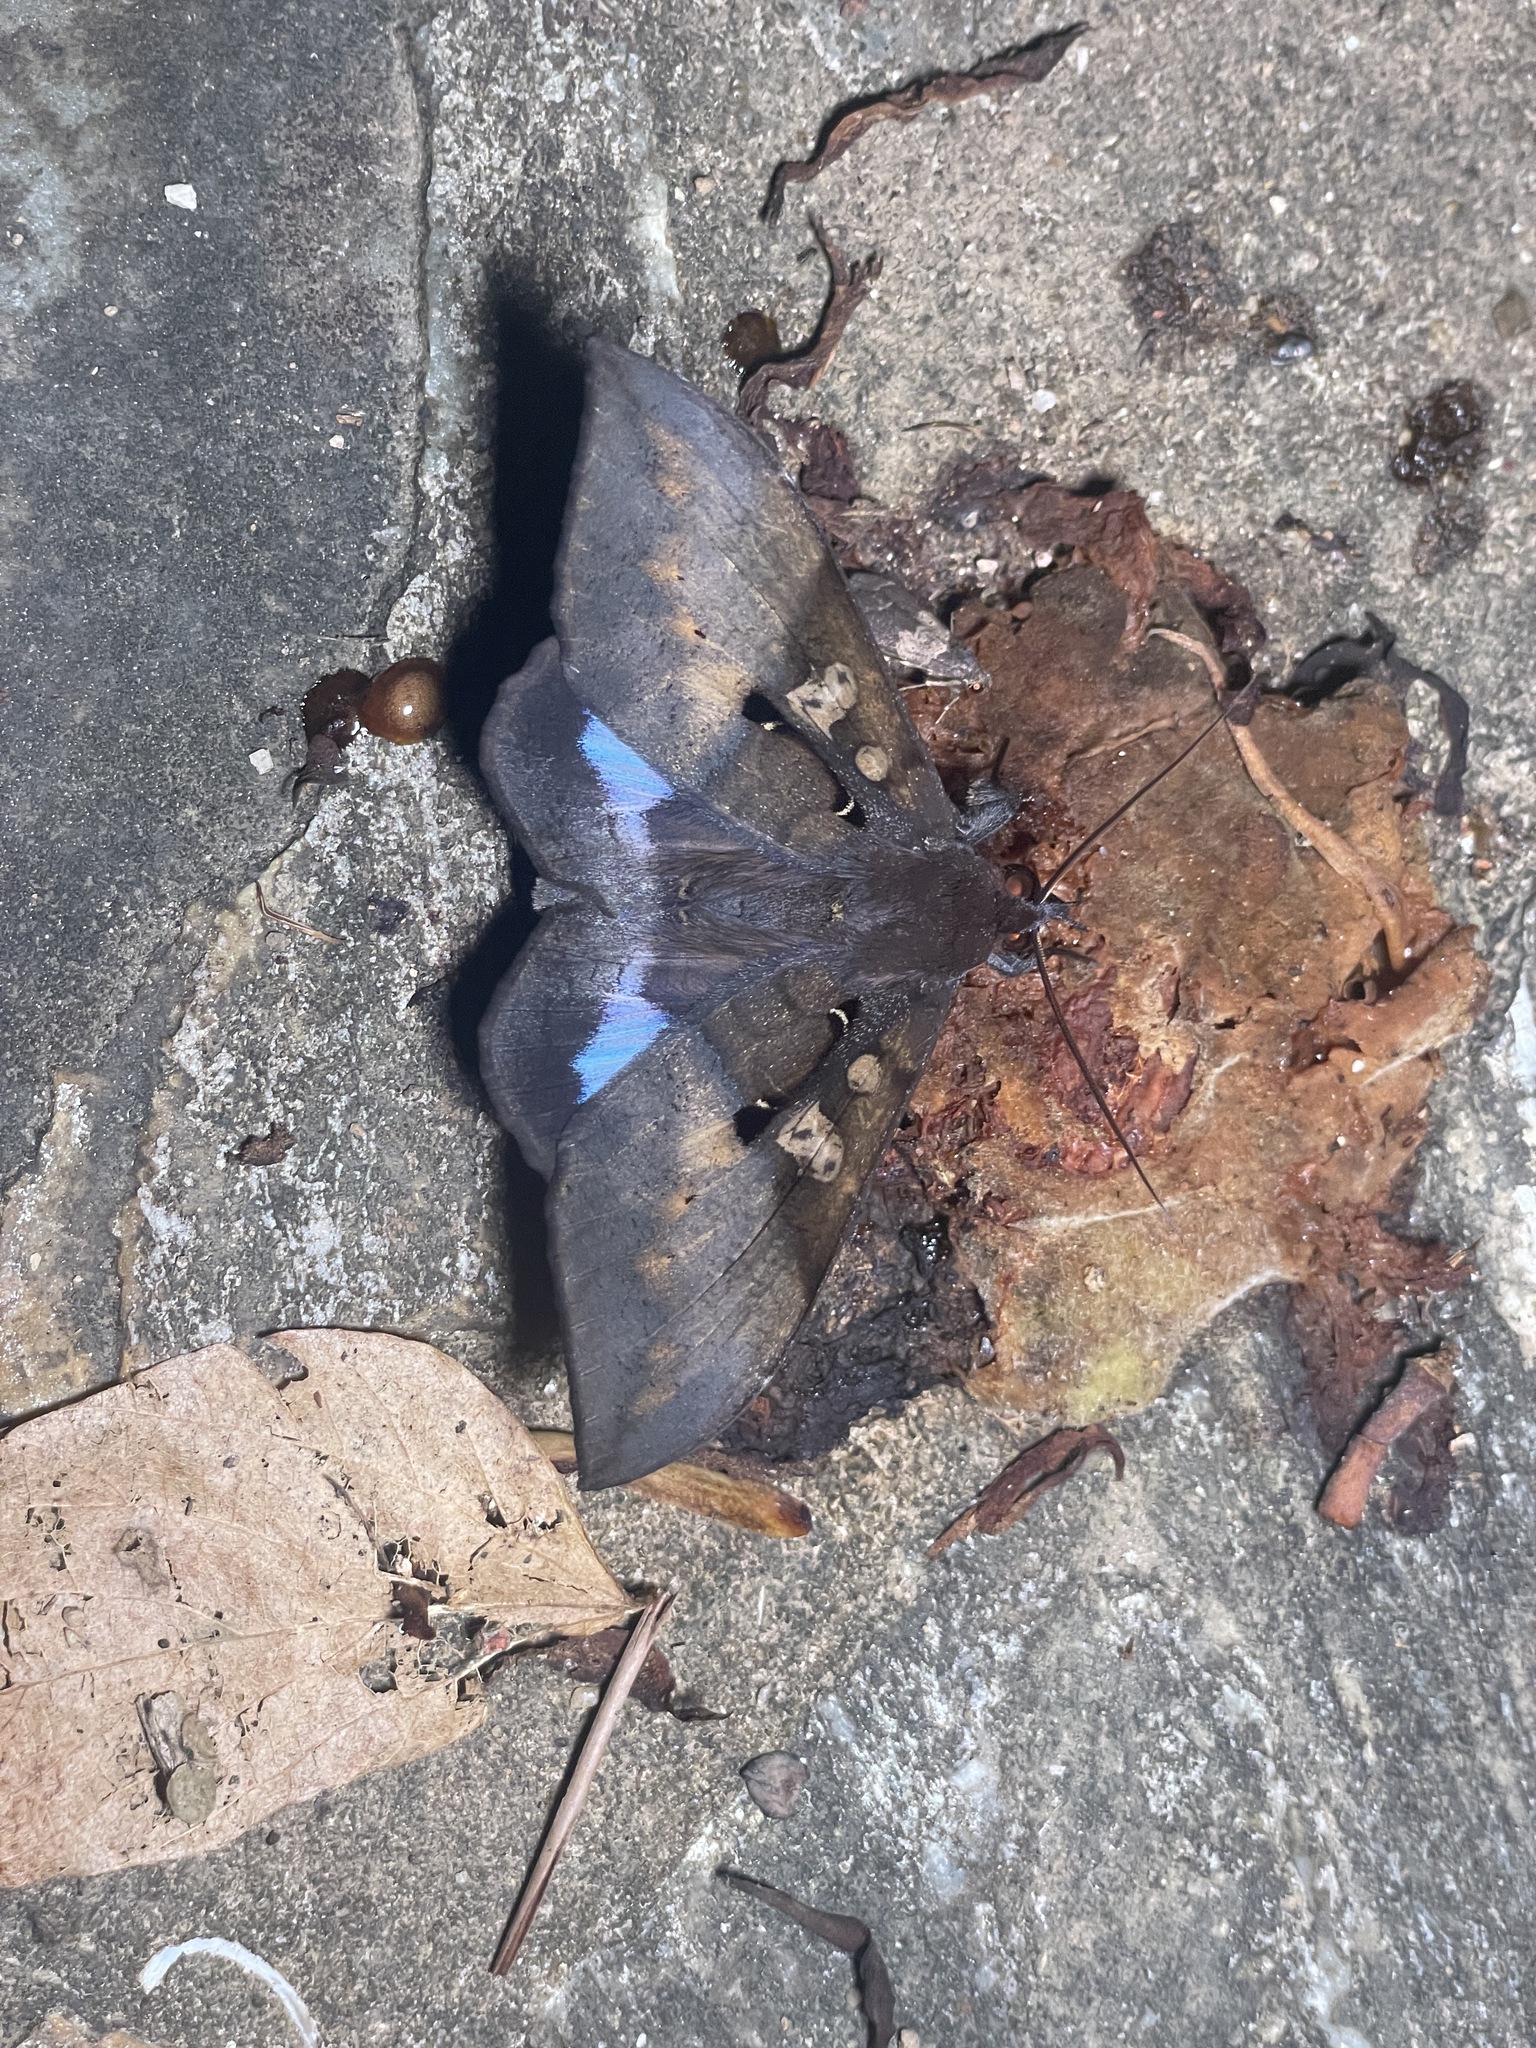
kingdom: Animalia
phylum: Arthropoda
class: Insecta
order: Lepidoptera
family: Erebidae
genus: Ischyja
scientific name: Ischyja manlia
